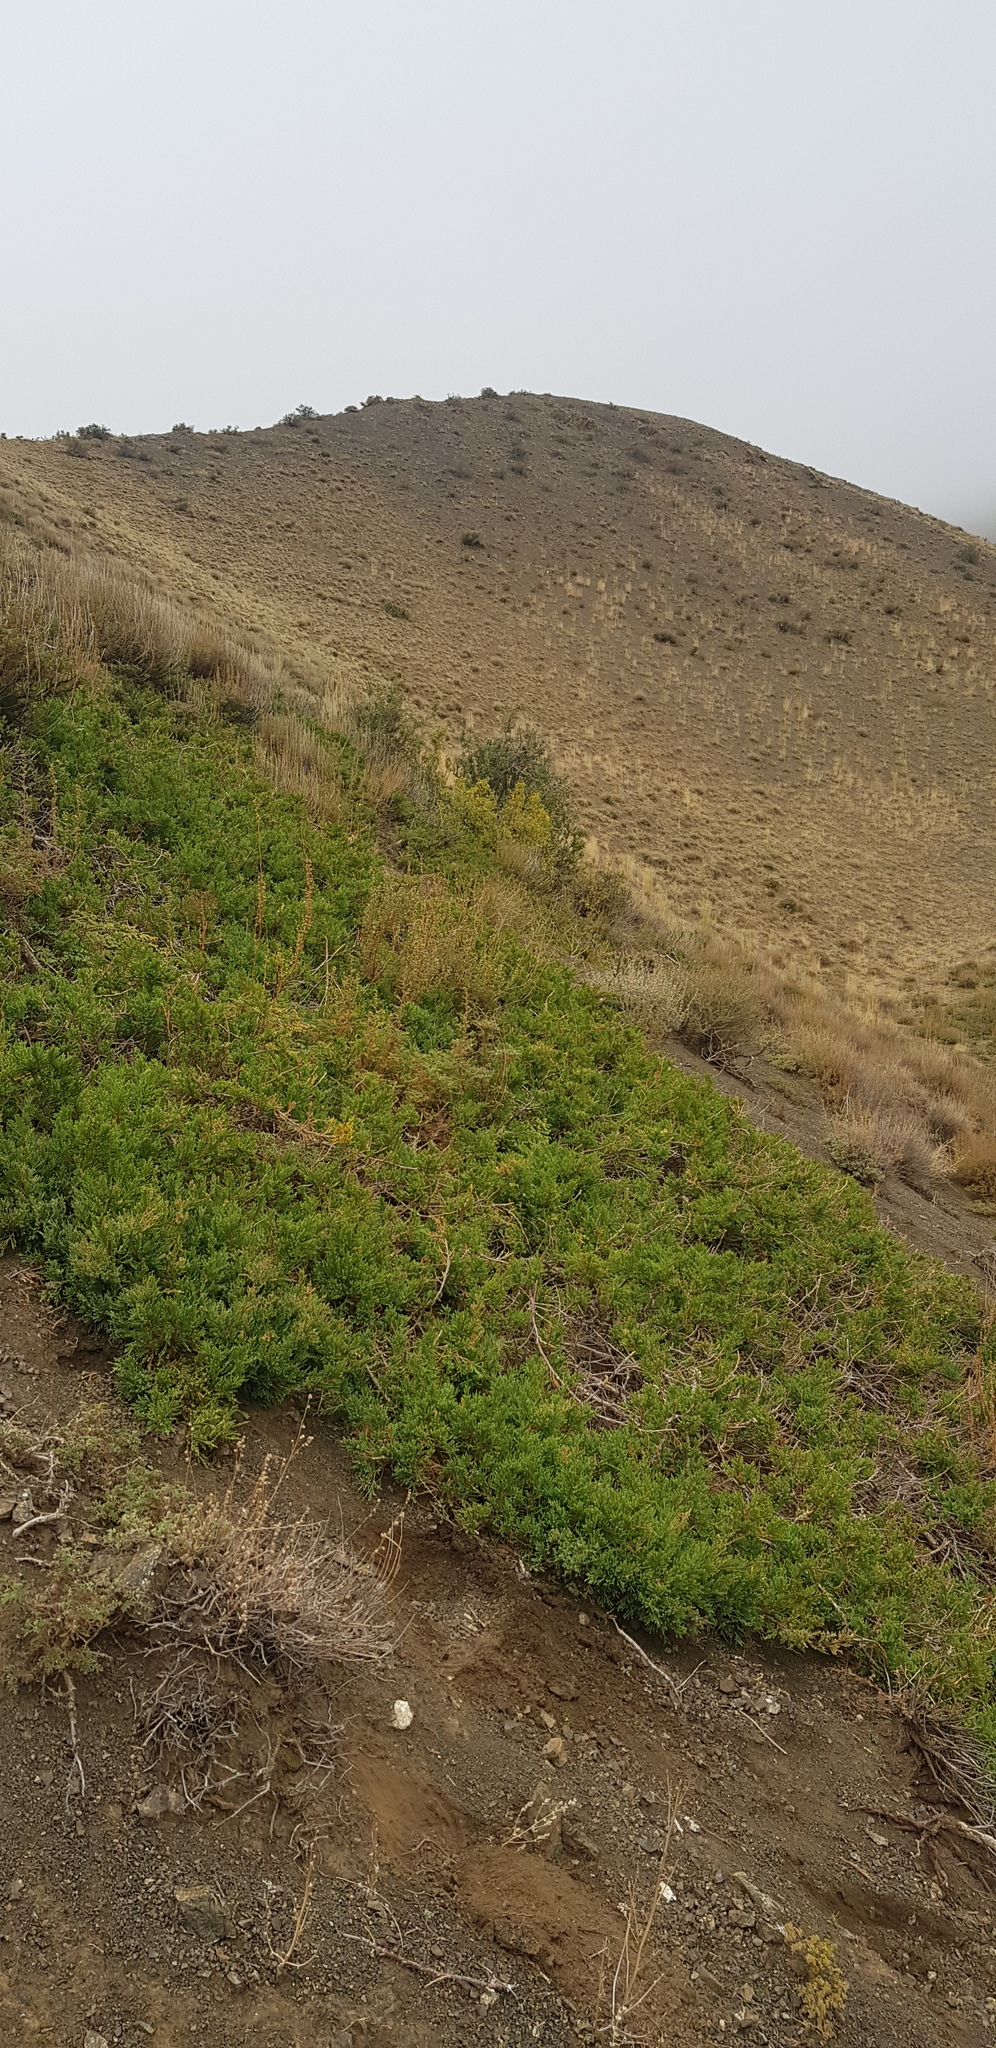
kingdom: Plantae
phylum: Tracheophyta
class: Pinopsida
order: Pinales
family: Cupressaceae
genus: Juniperus
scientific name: Juniperus sabina
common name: Savin
